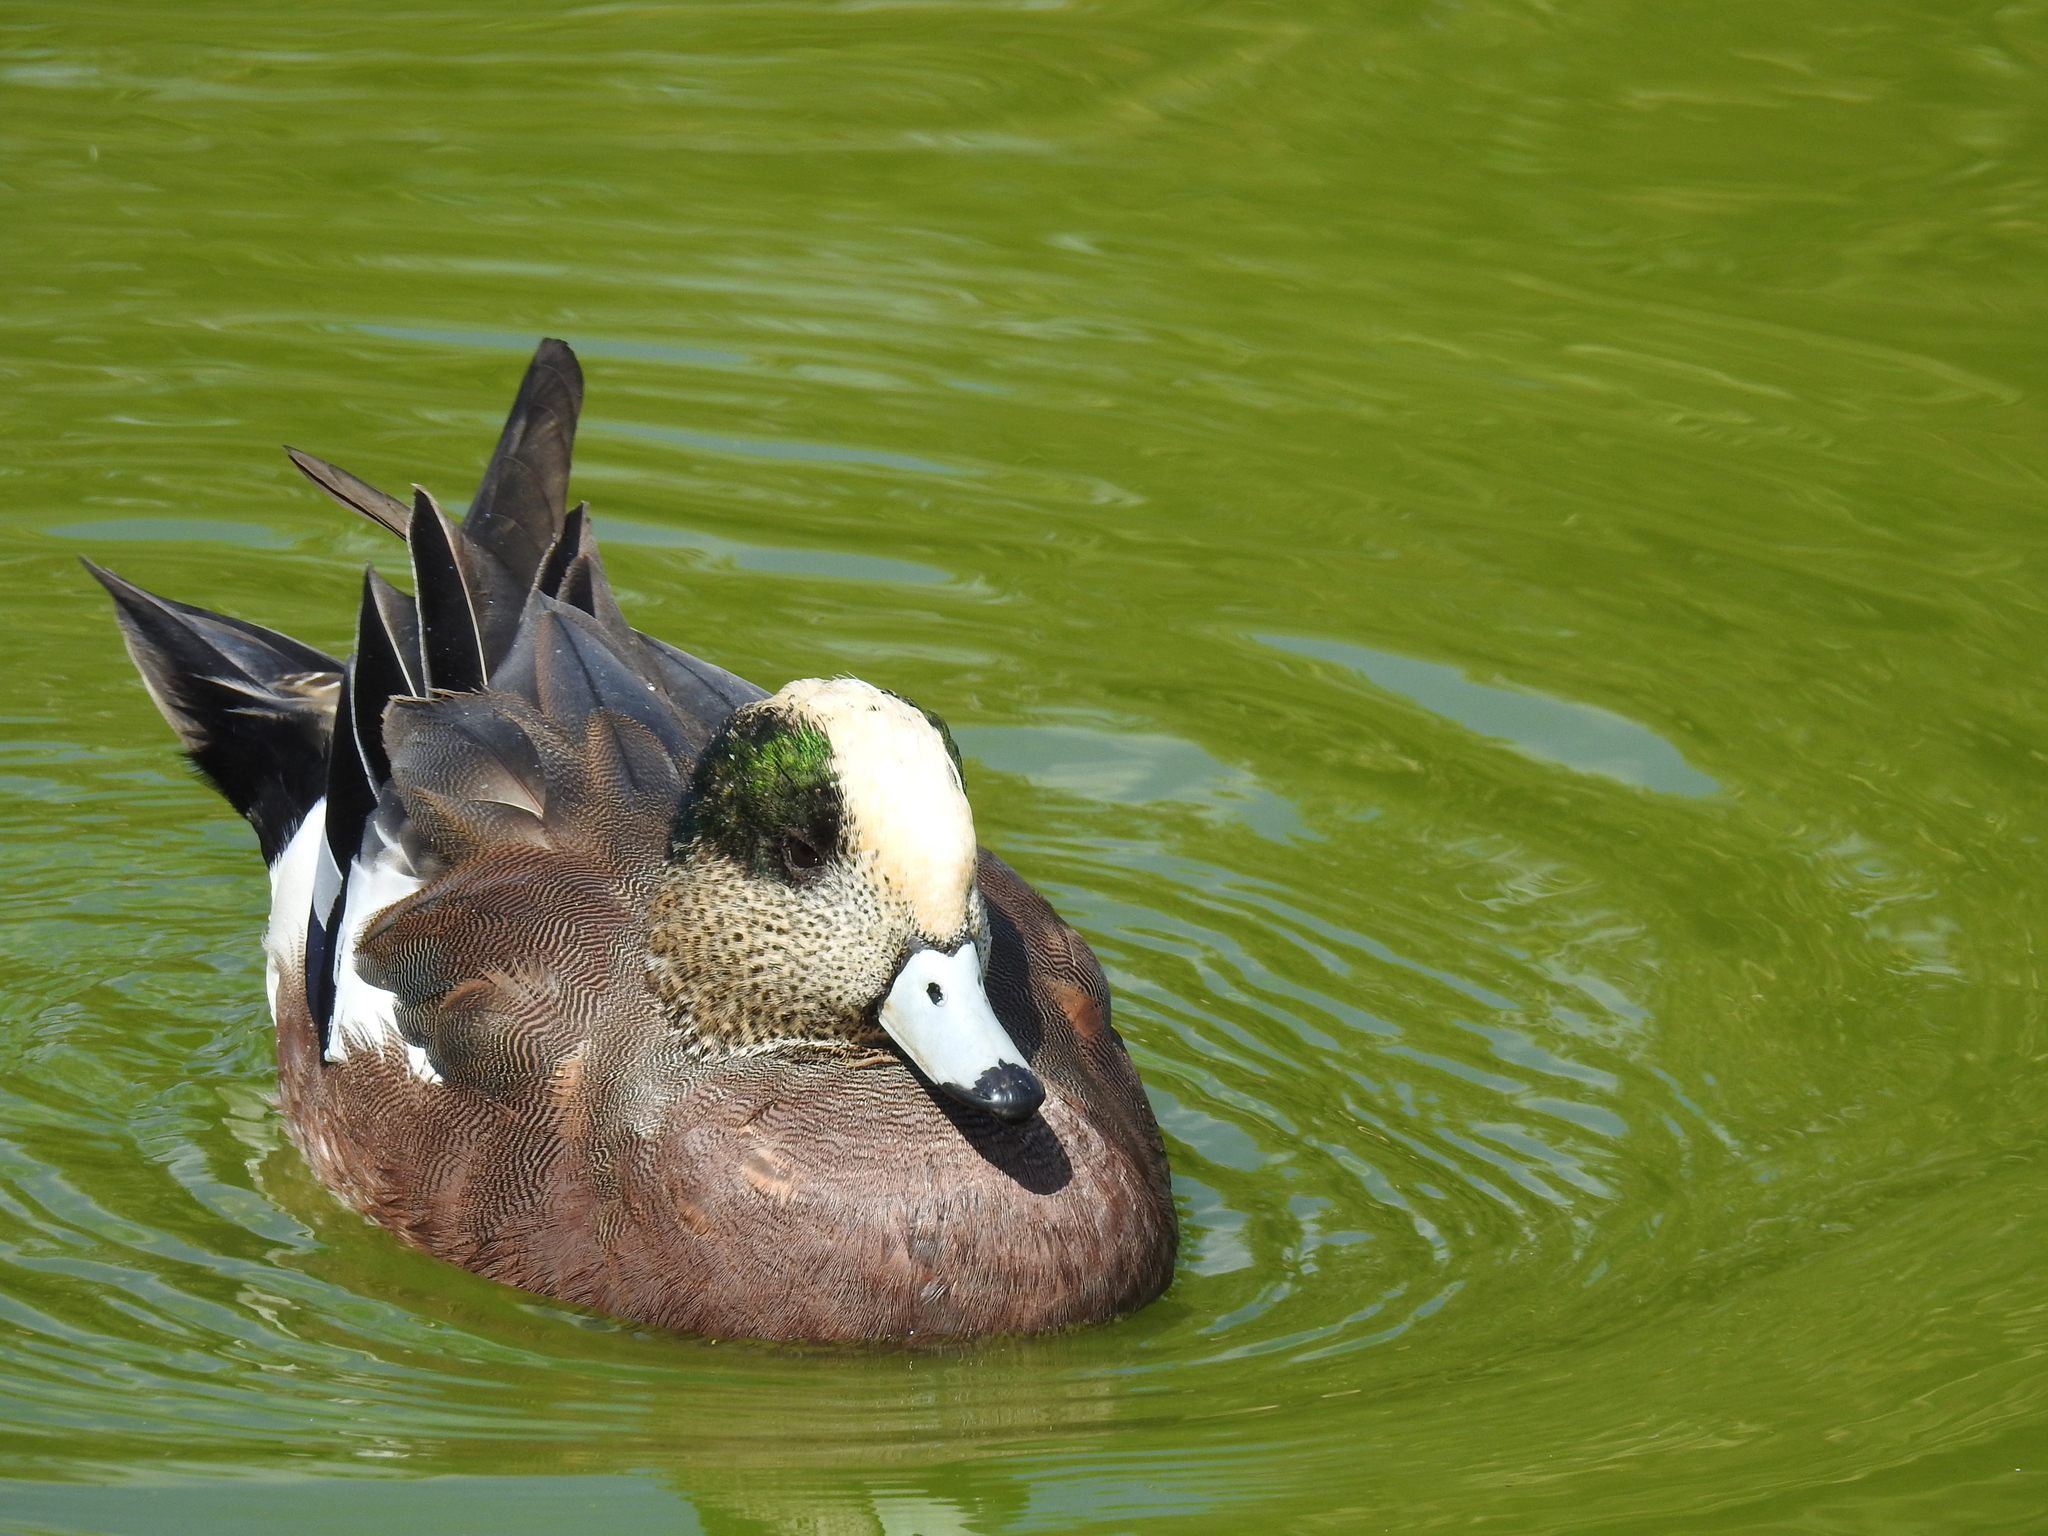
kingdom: Animalia
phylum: Chordata
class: Aves
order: Anseriformes
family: Anatidae
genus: Mareca
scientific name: Mareca americana
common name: American wigeon
